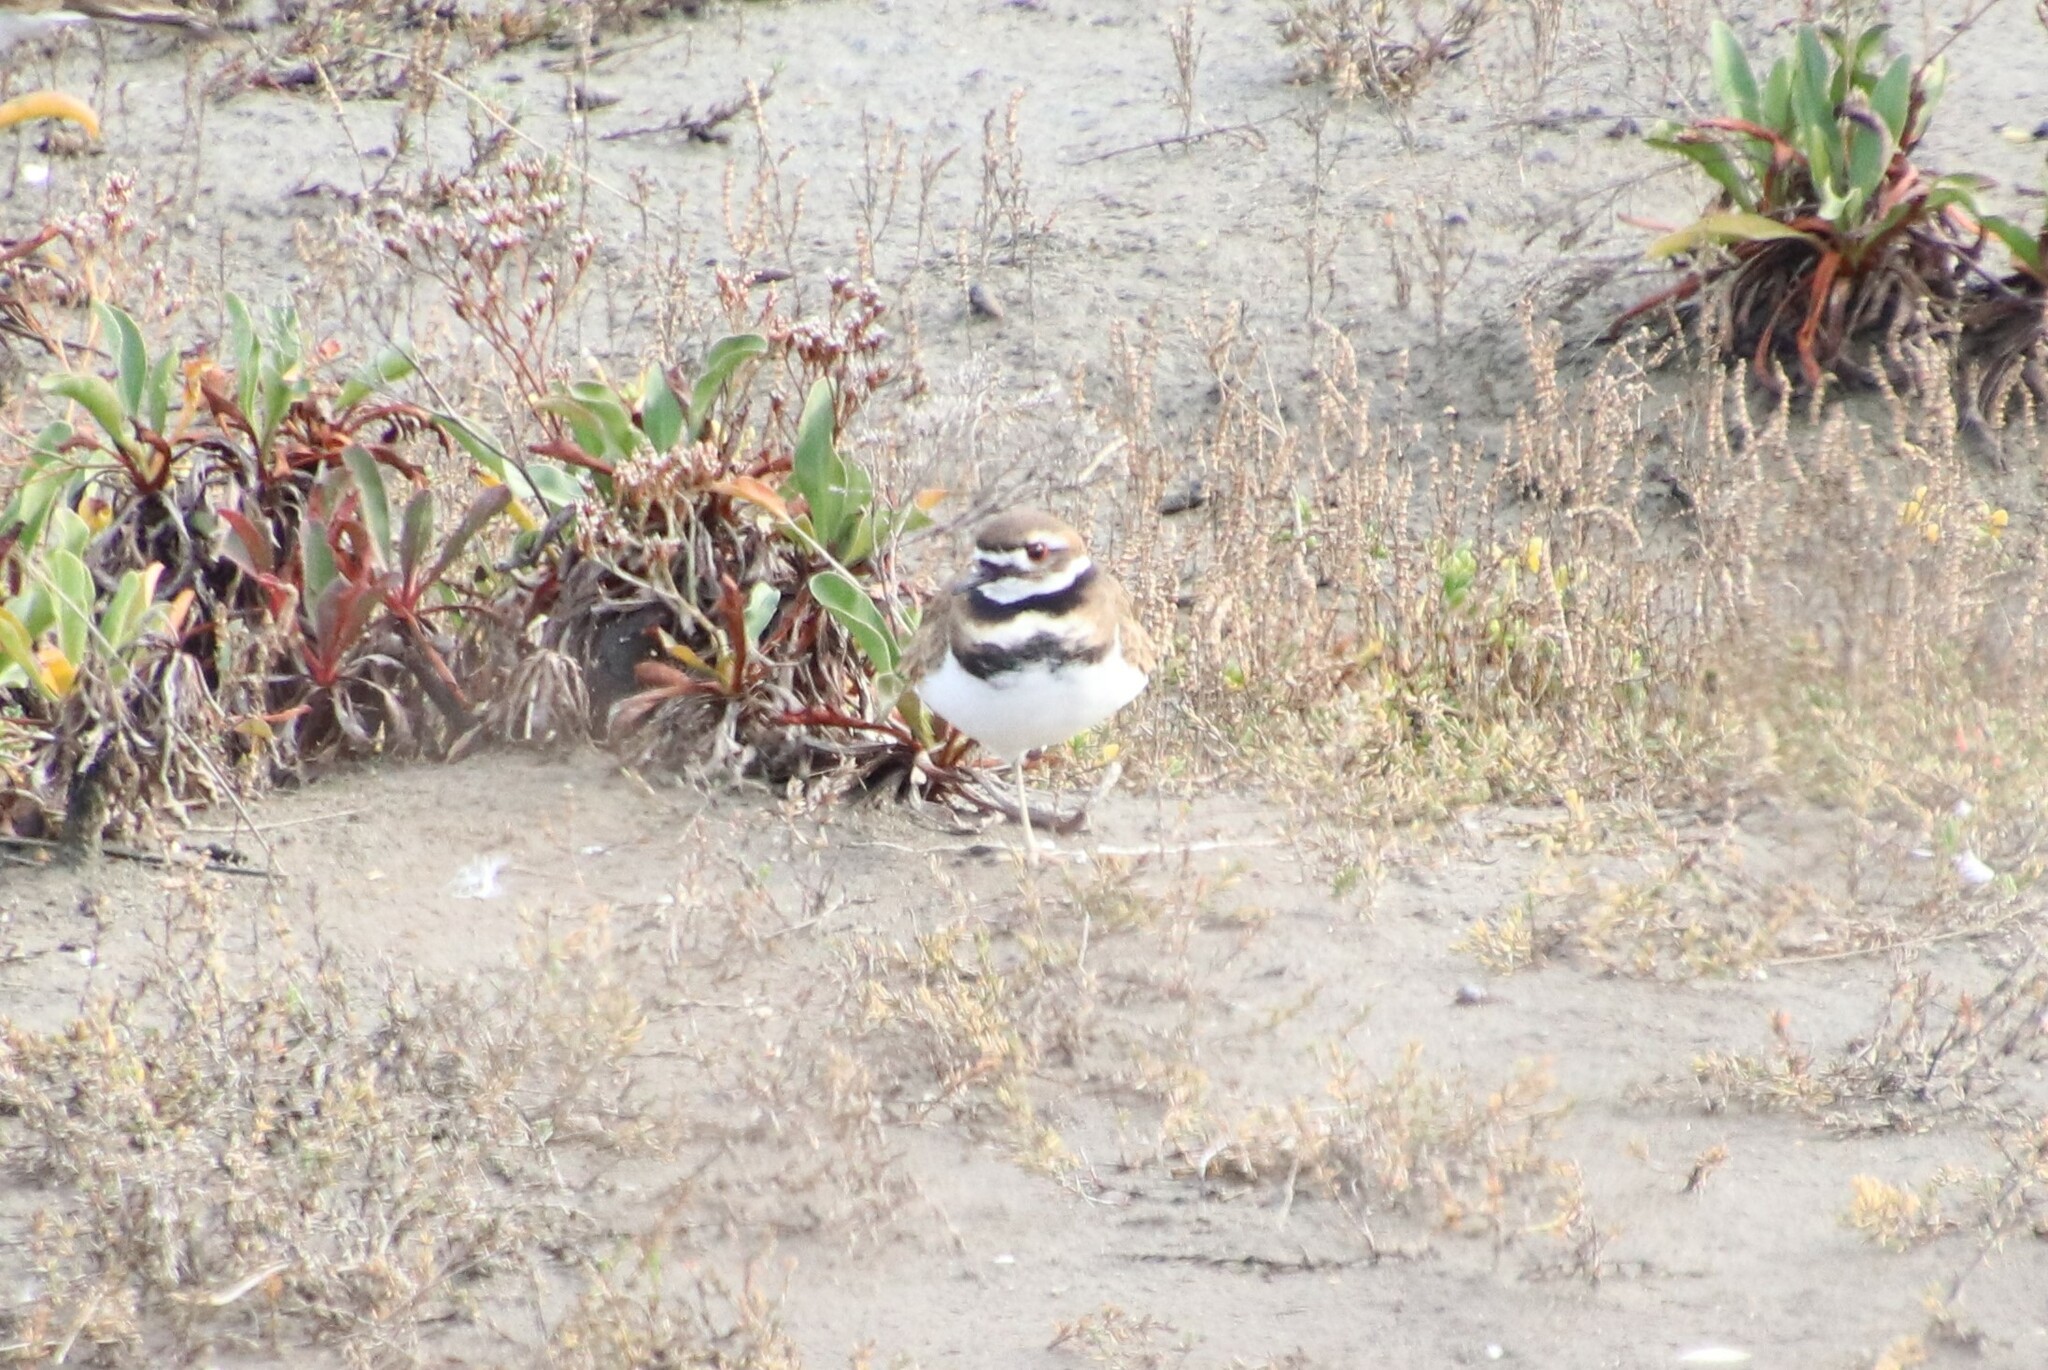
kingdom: Animalia
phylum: Chordata
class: Aves
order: Charadriiformes
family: Charadriidae
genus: Charadrius
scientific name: Charadrius vociferus
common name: Killdeer
